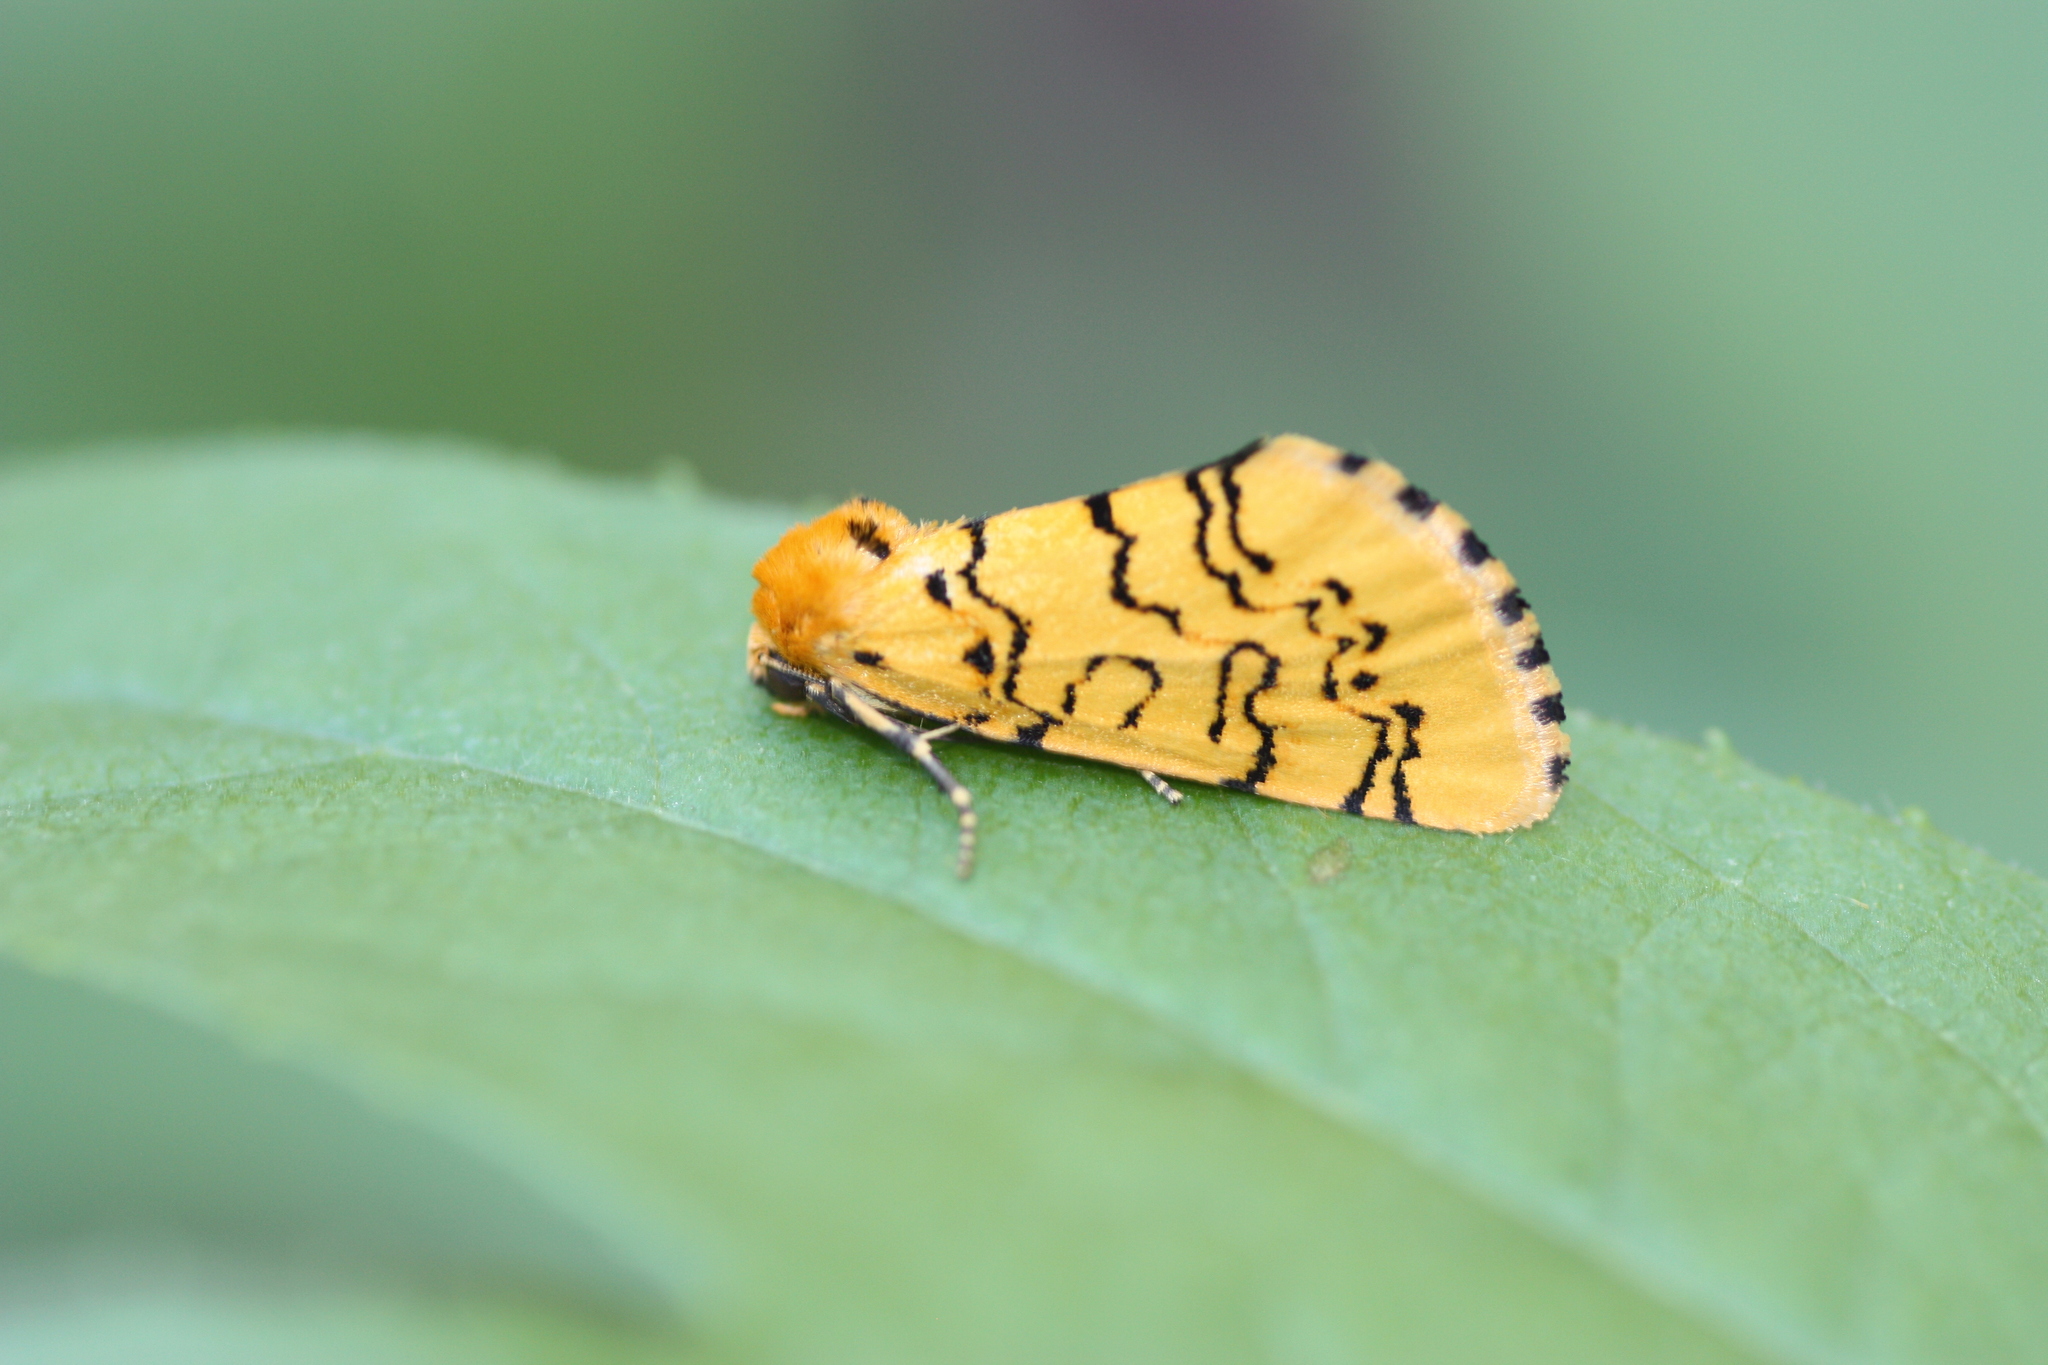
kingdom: Animalia
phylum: Arthropoda
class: Insecta
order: Lepidoptera
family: Noctuidae
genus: Chrysoecia
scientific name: Chrysoecia atrolinea
